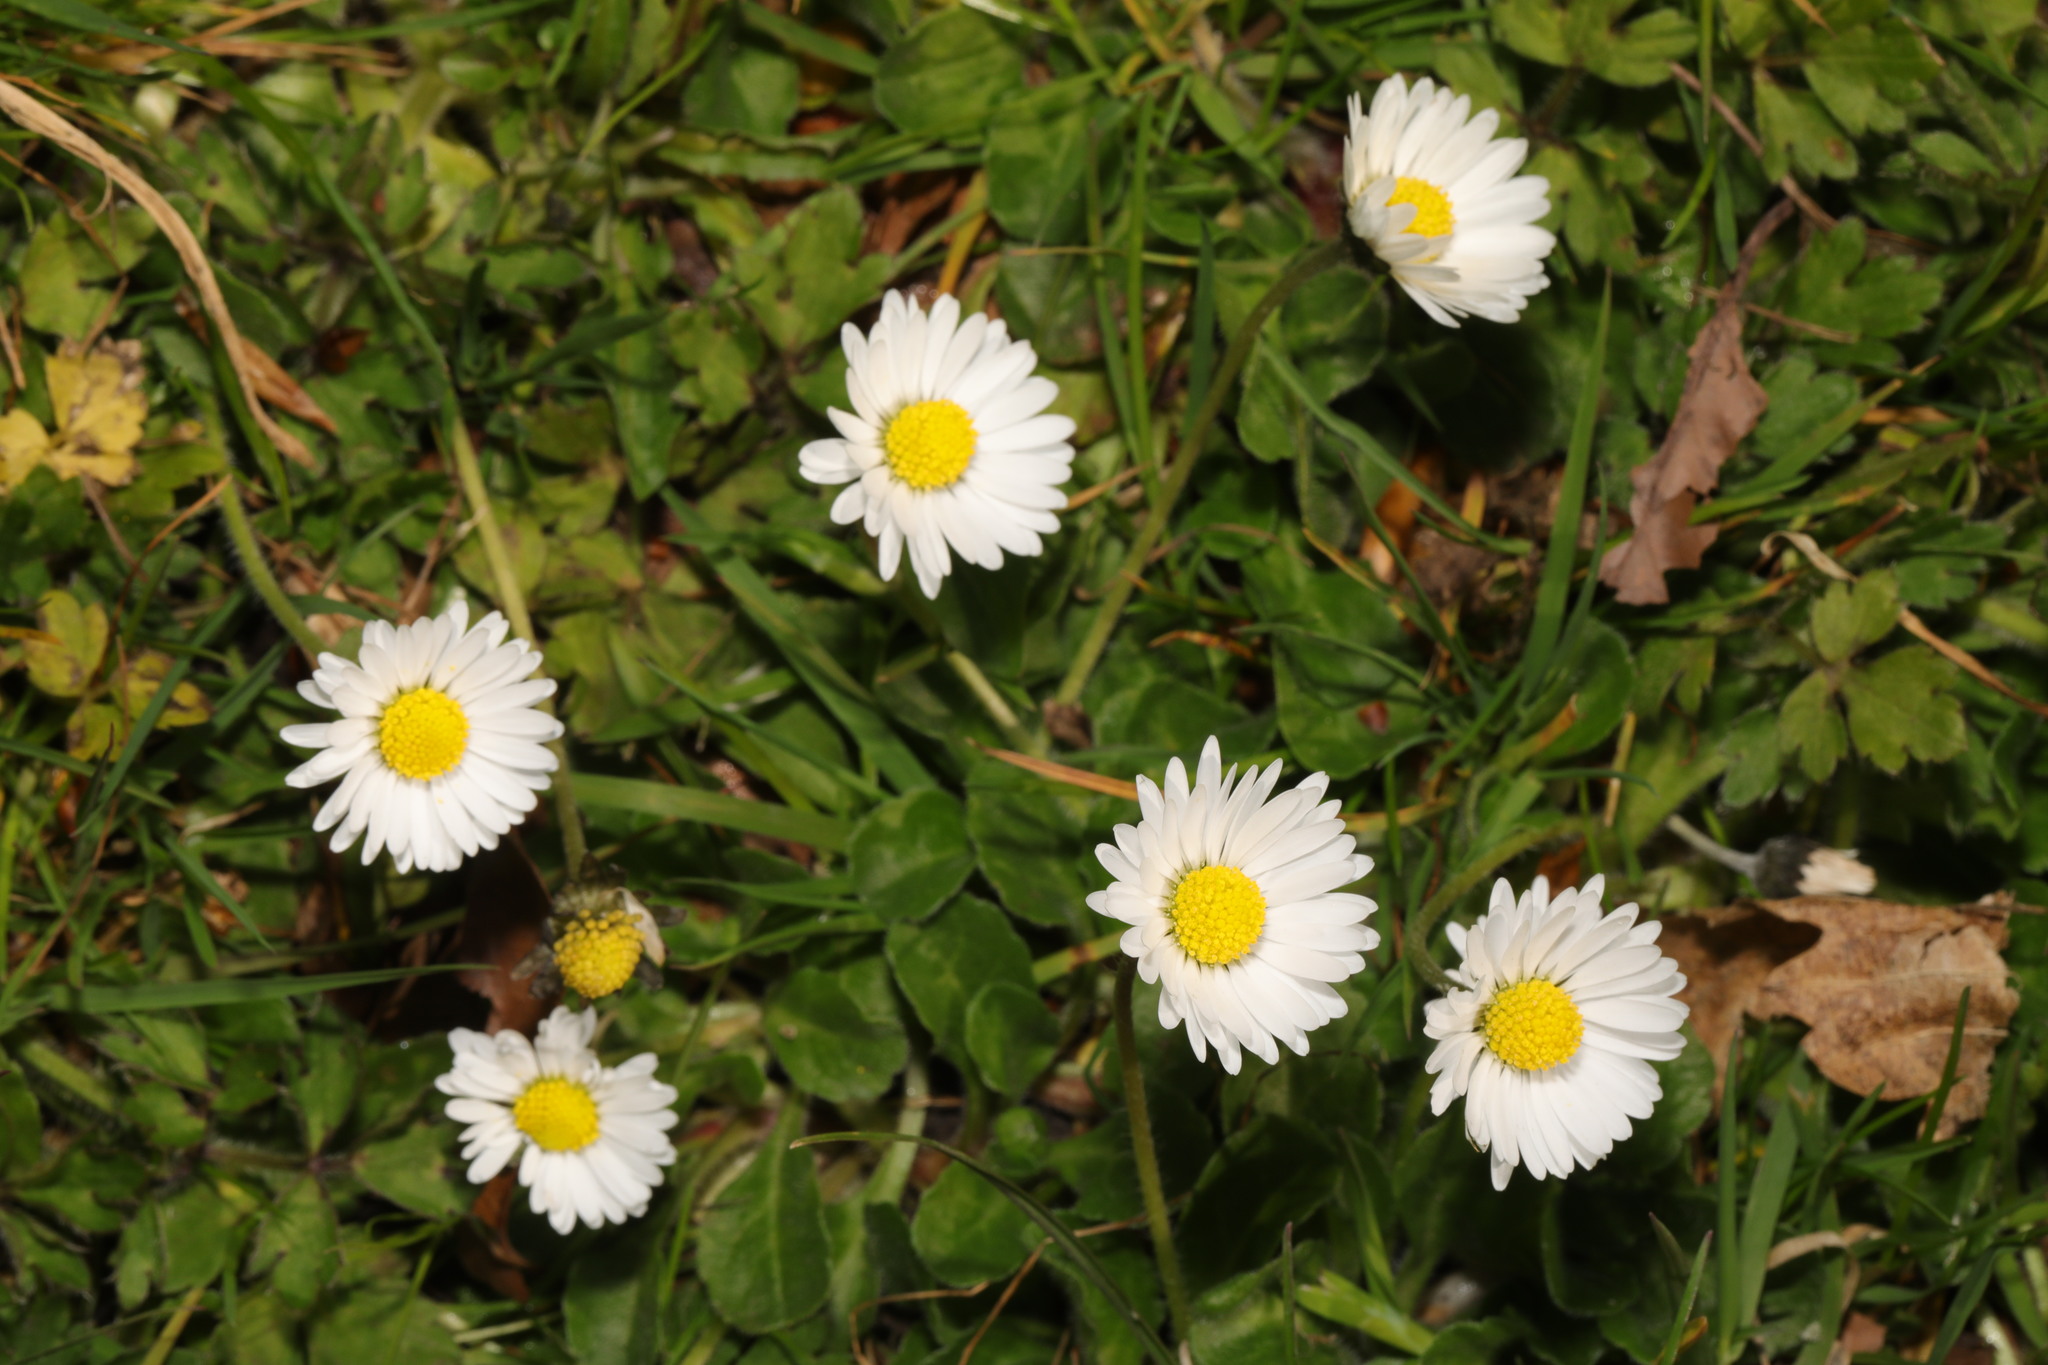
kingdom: Plantae
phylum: Tracheophyta
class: Magnoliopsida
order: Asterales
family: Asteraceae
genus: Bellis
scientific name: Bellis perennis
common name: Lawndaisy
